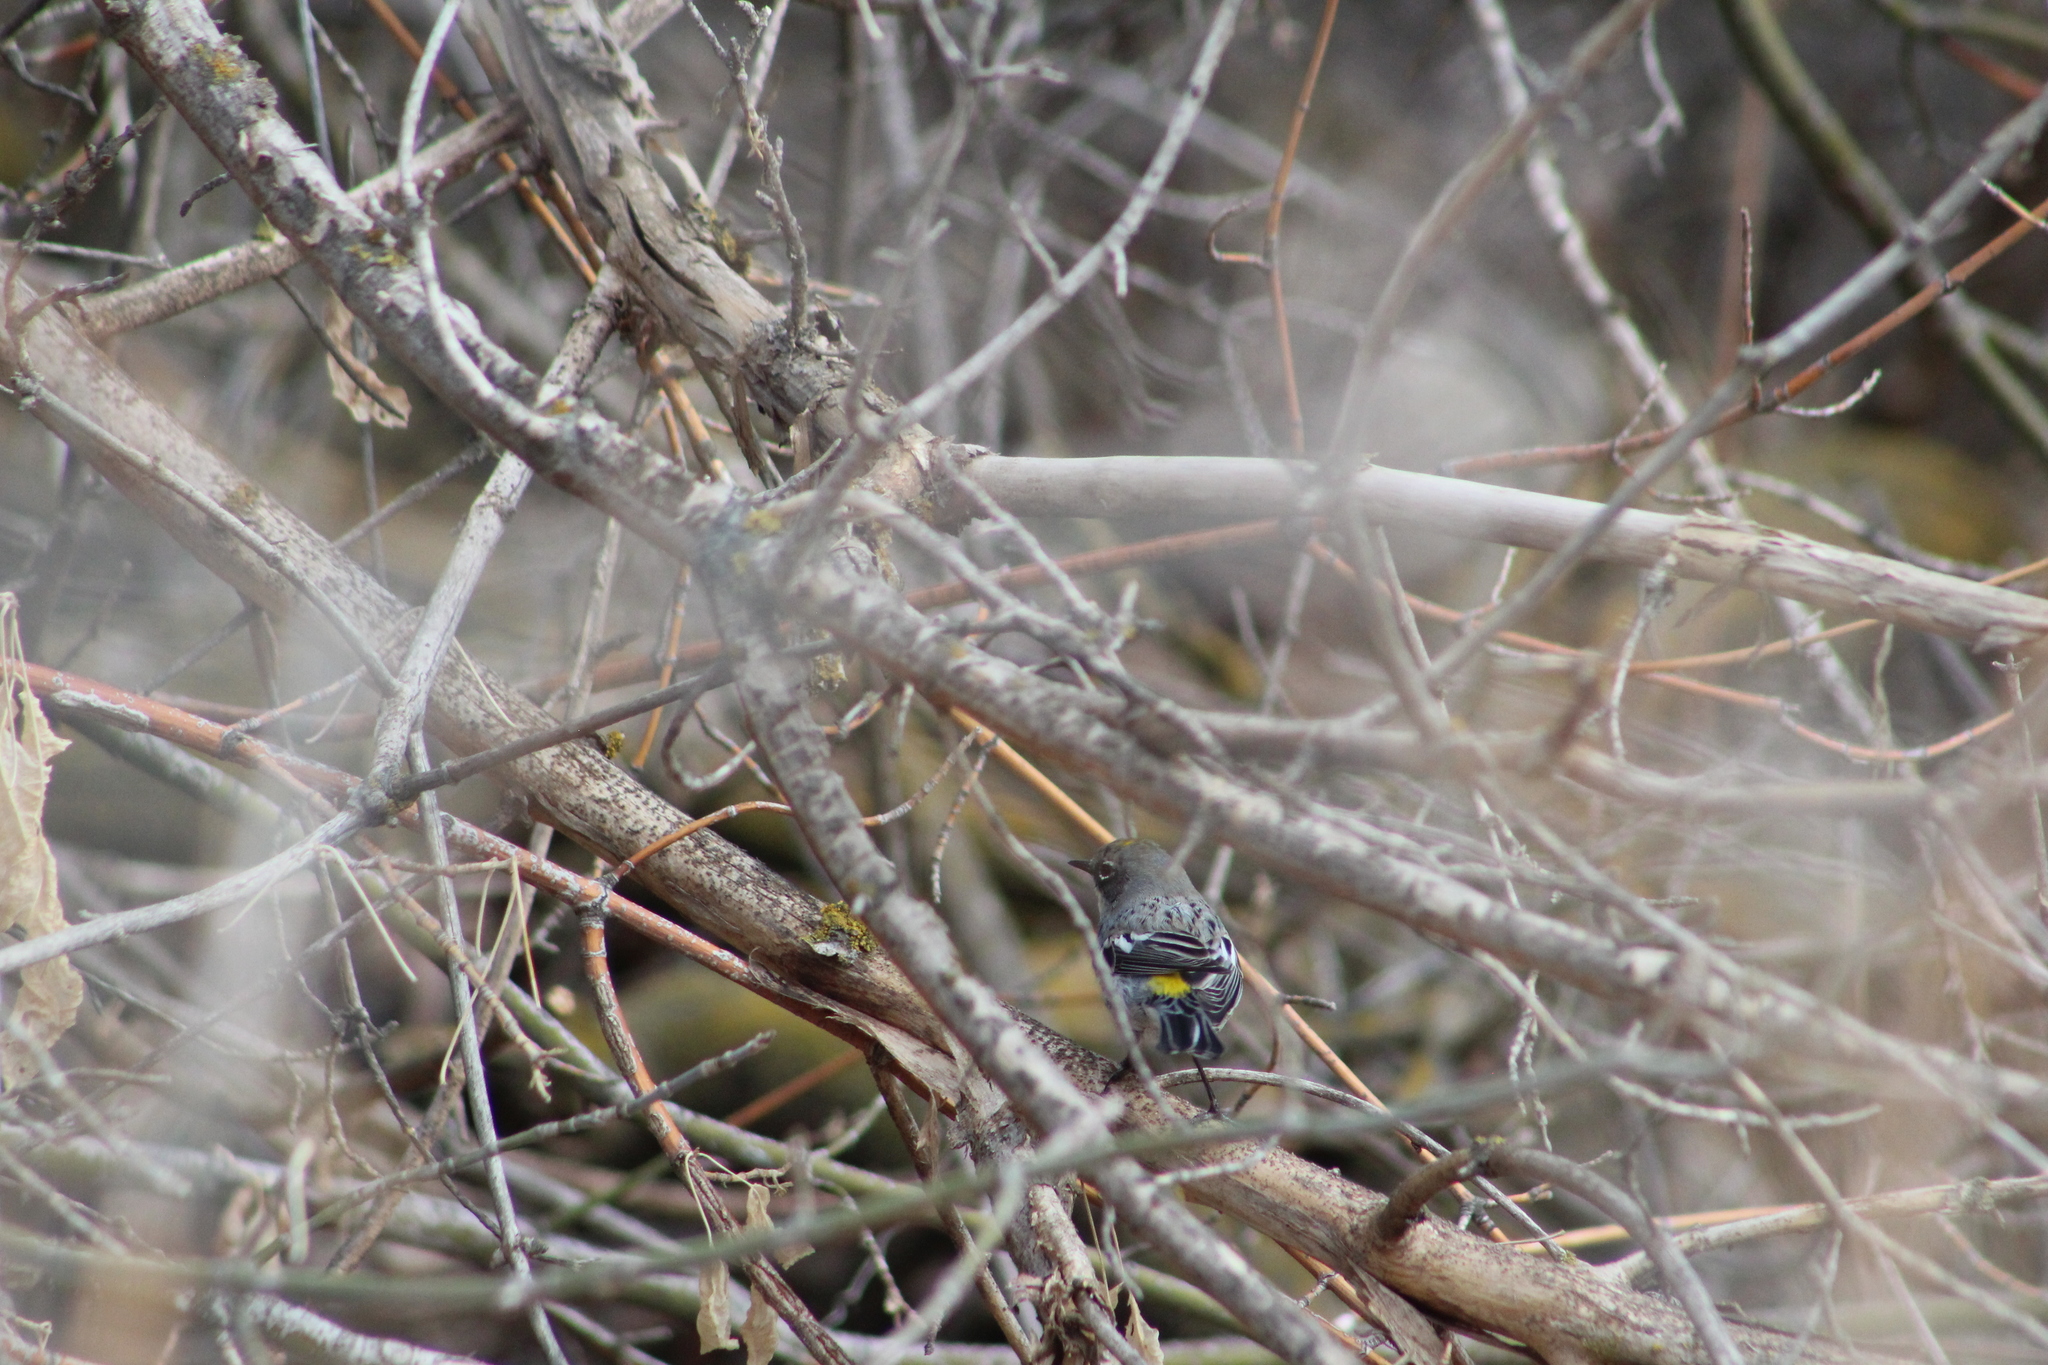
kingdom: Animalia
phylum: Chordata
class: Aves
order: Passeriformes
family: Parulidae
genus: Setophaga
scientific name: Setophaga coronata
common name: Myrtle warbler
